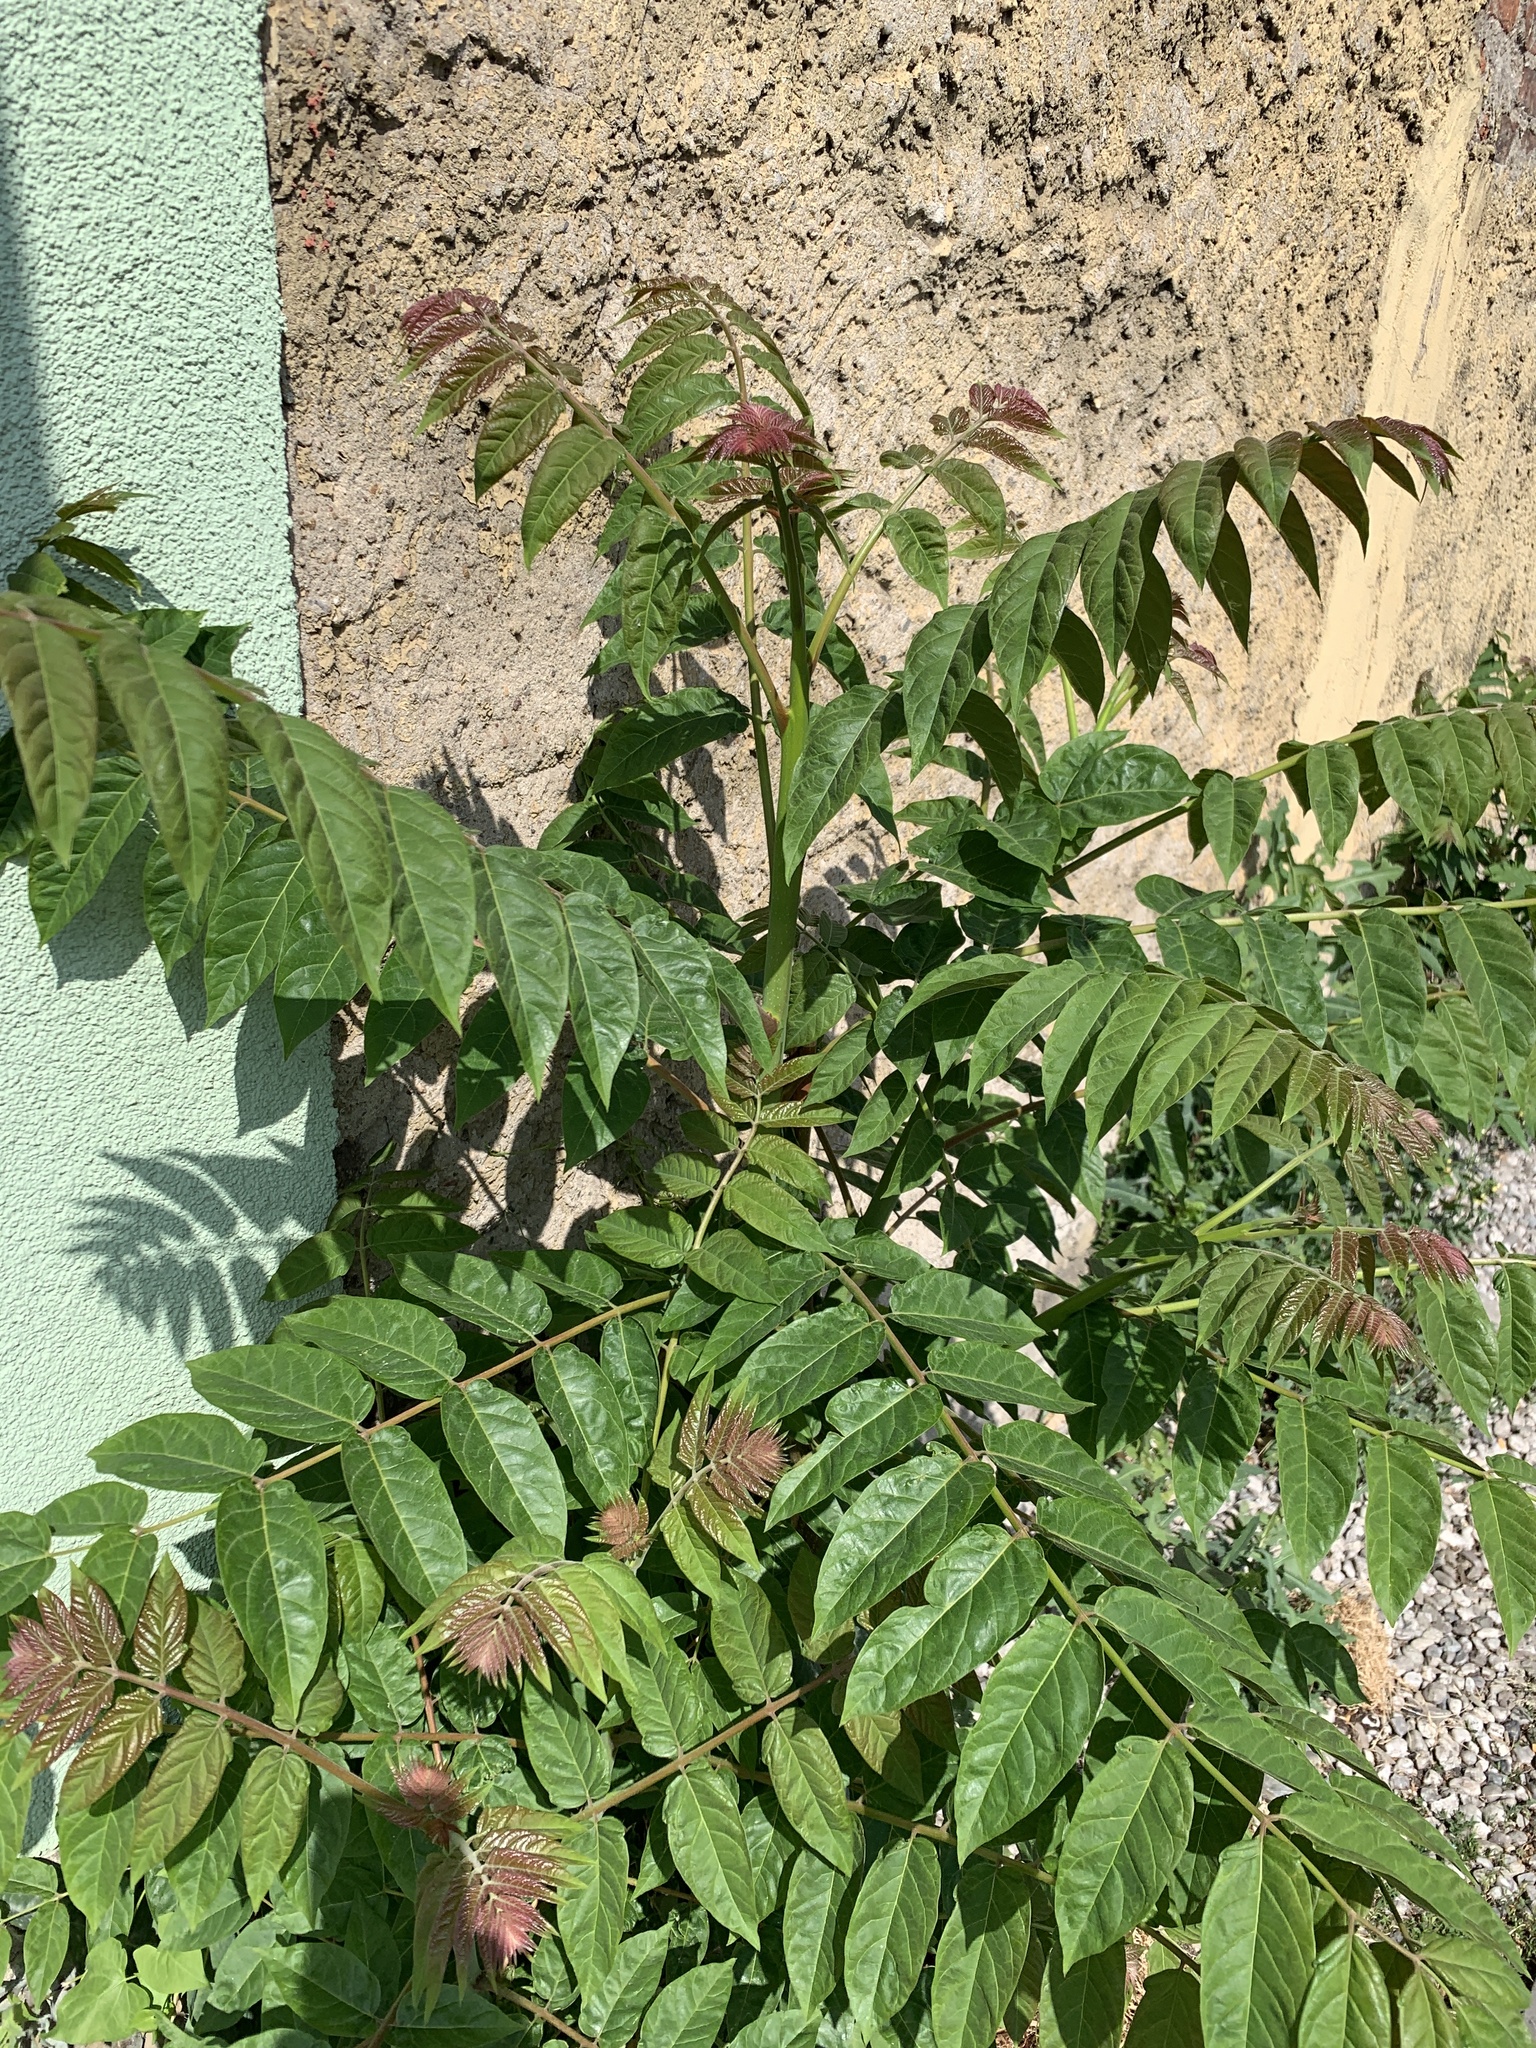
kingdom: Plantae
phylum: Tracheophyta
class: Magnoliopsida
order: Sapindales
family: Simaroubaceae
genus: Ailanthus
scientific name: Ailanthus altissima
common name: Tree-of-heaven
